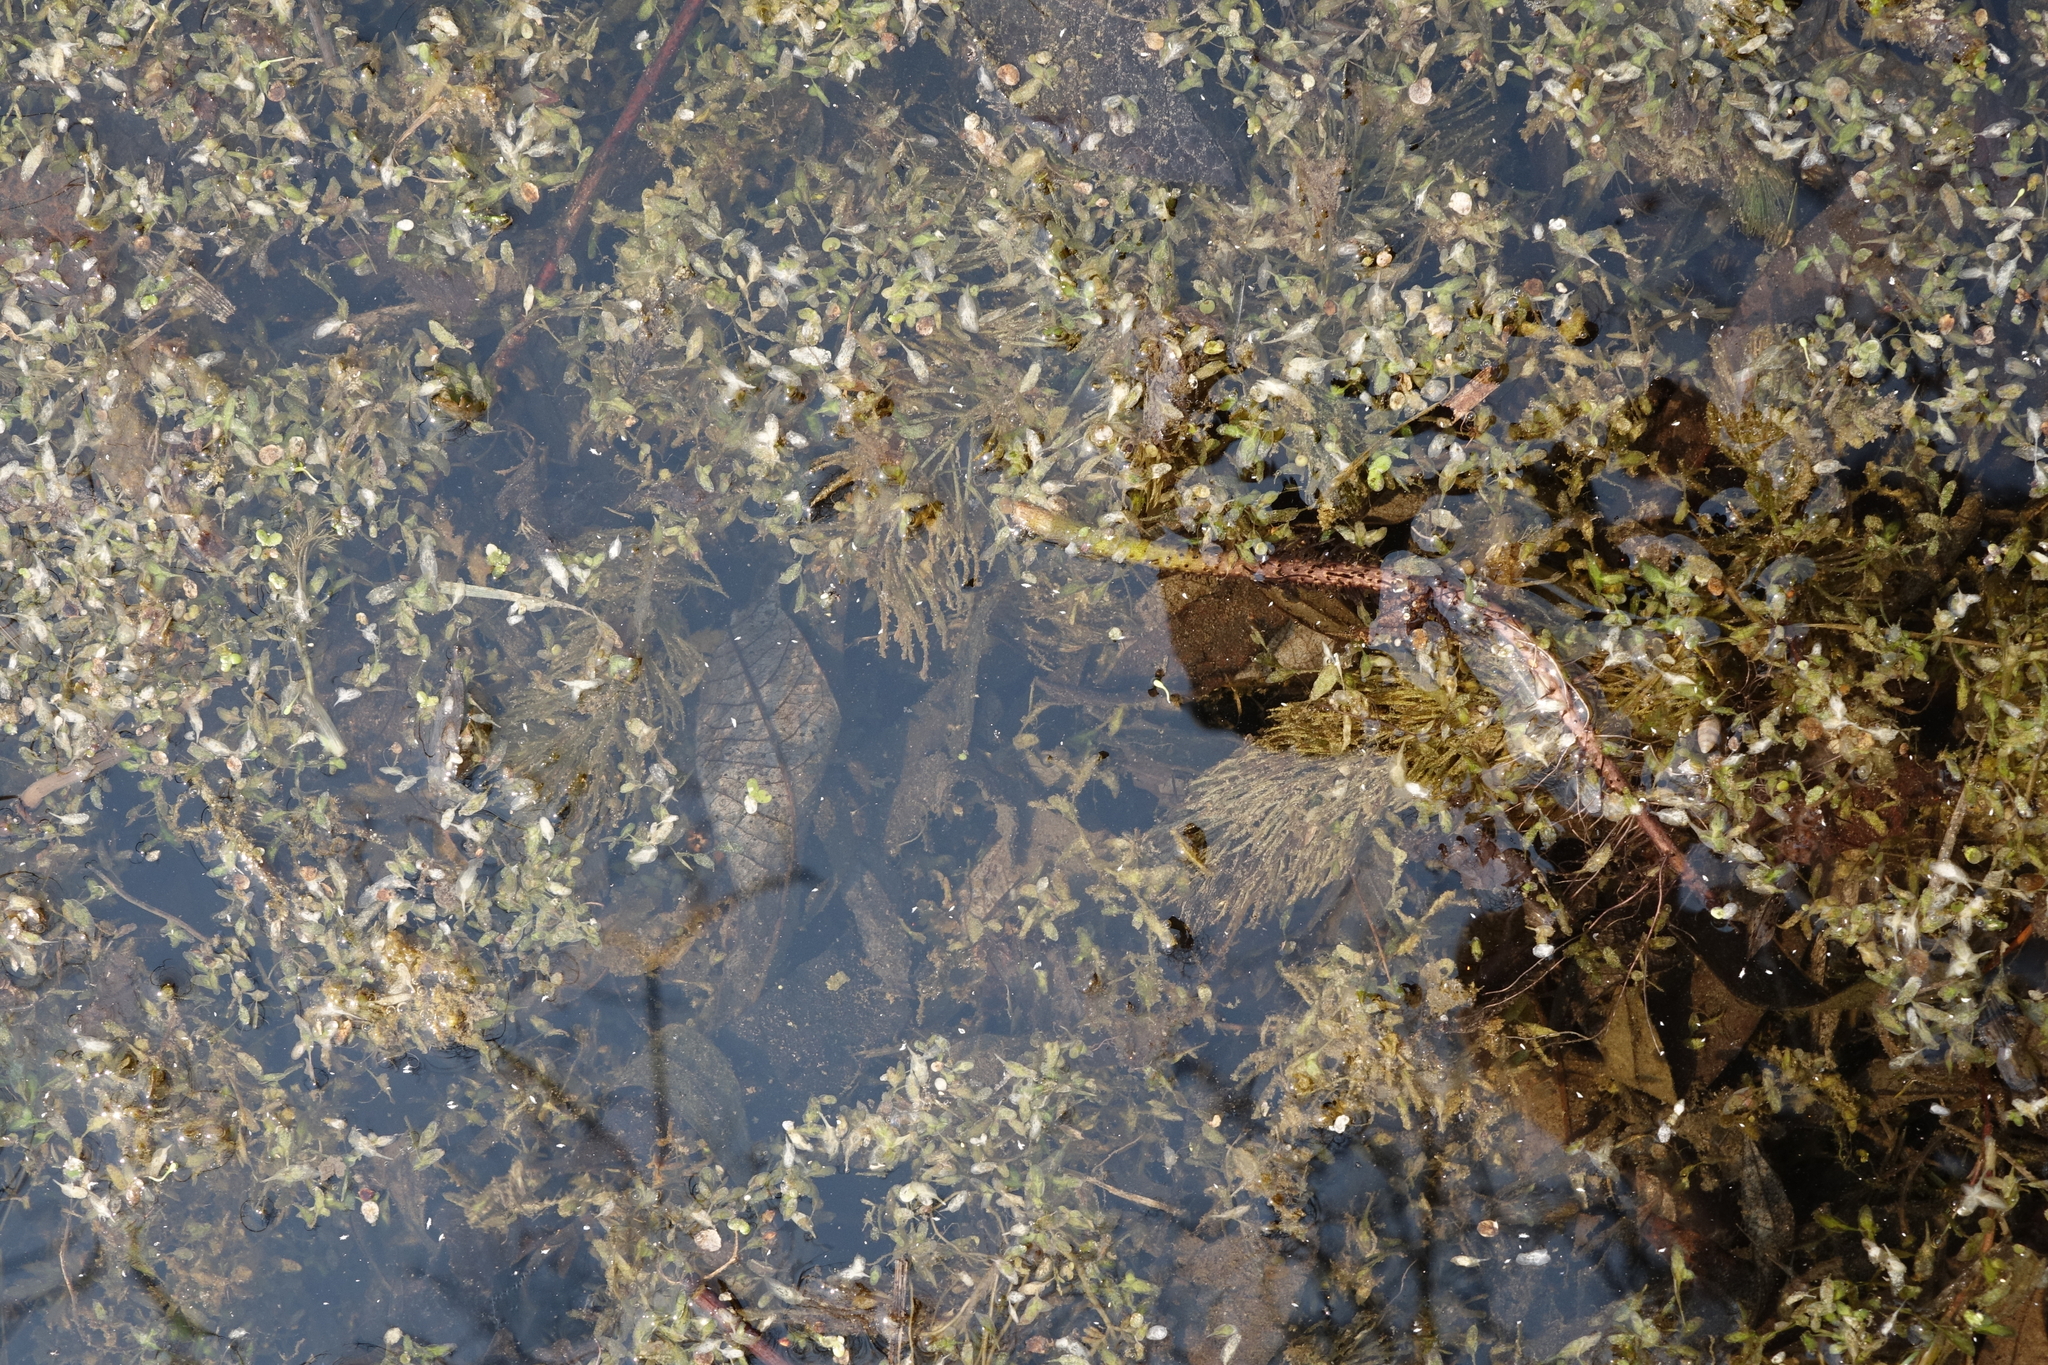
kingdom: Plantae
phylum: Tracheophyta
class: Magnoliopsida
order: Ceratophyllales
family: Ceratophyllaceae
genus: Ceratophyllum
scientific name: Ceratophyllum demersum
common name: Rigid hornwort
